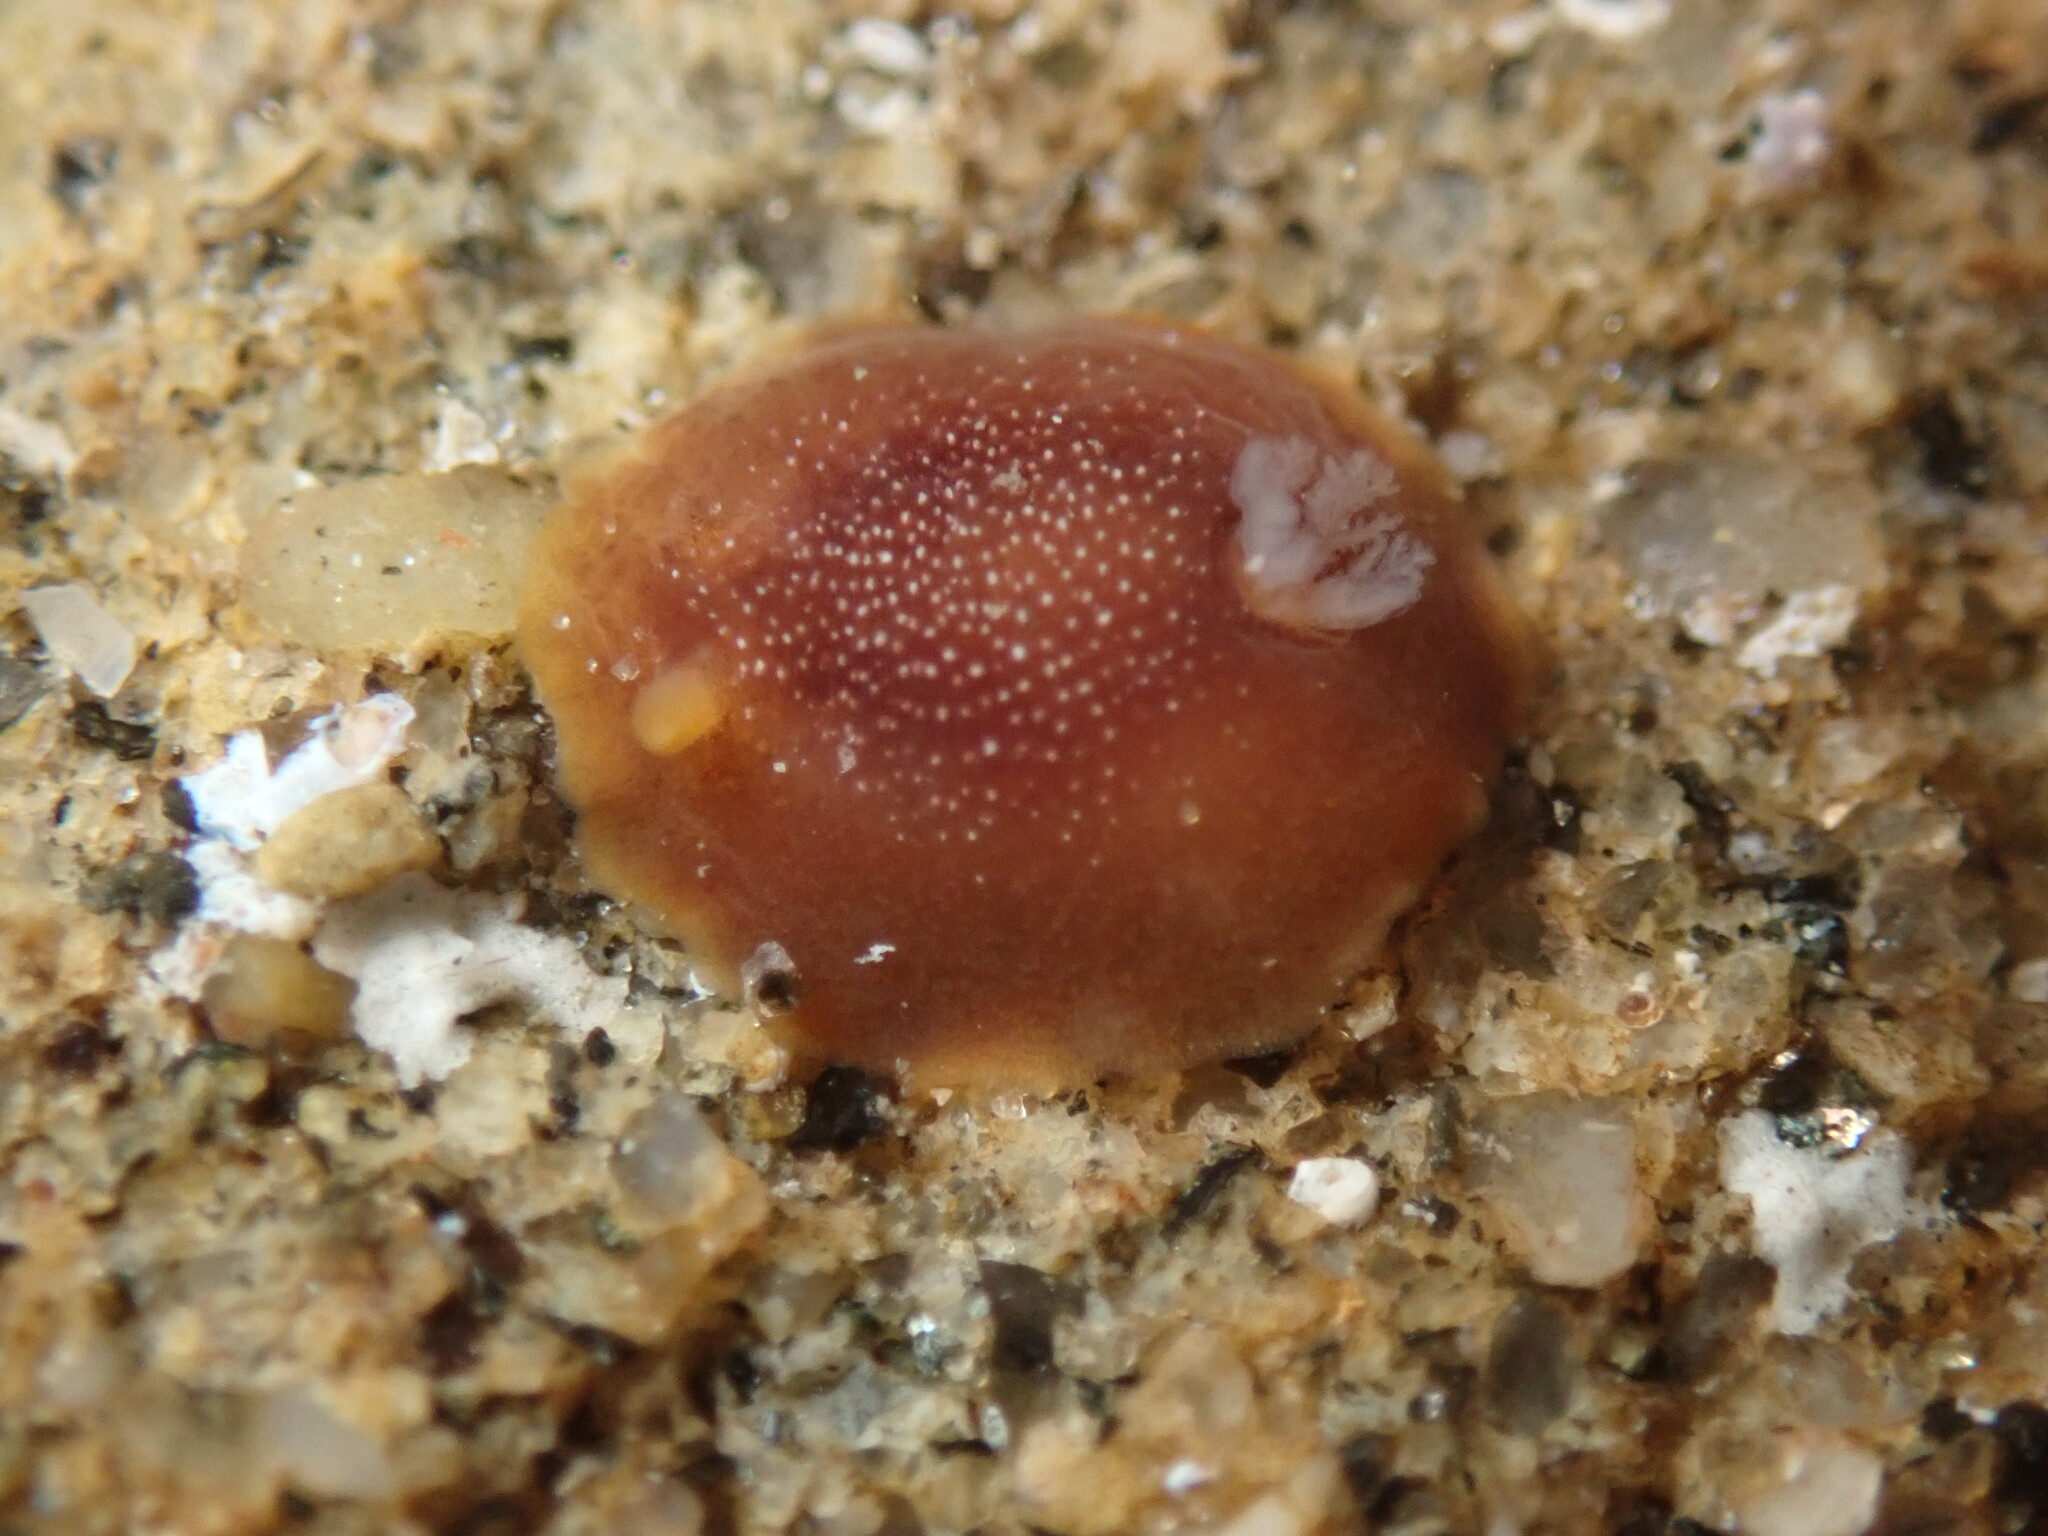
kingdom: Animalia
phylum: Mollusca
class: Gastropoda
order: Nudibranchia
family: Dendrodorididae
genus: Doriopsilla
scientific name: Doriopsilla albopunctata
